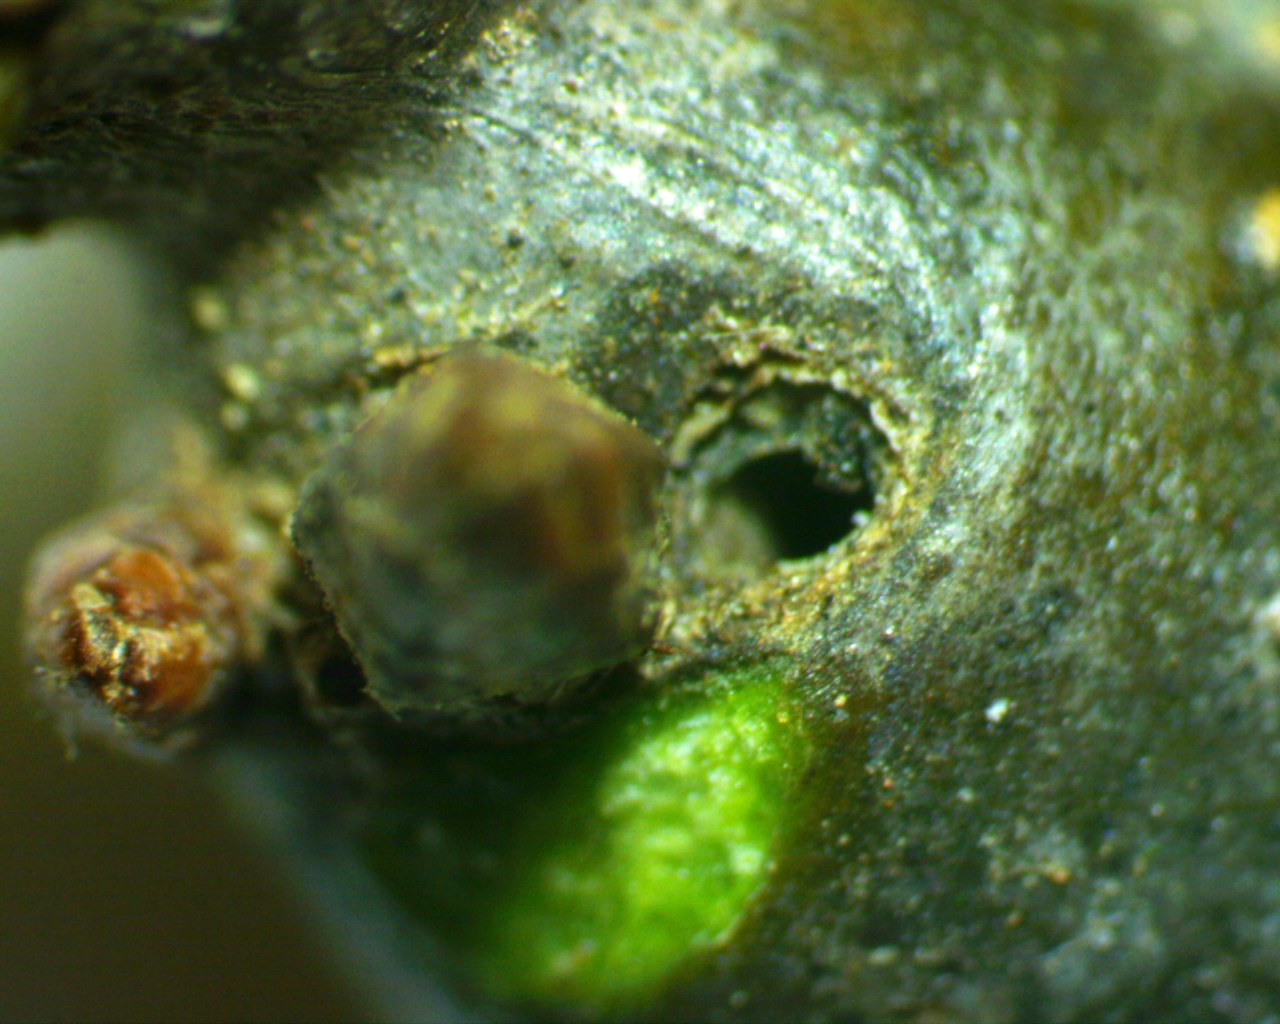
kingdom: Animalia
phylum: Arthropoda
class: Insecta
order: Hymenoptera
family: Cynipidae
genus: Zapatella
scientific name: Zapatella quercusphellos
